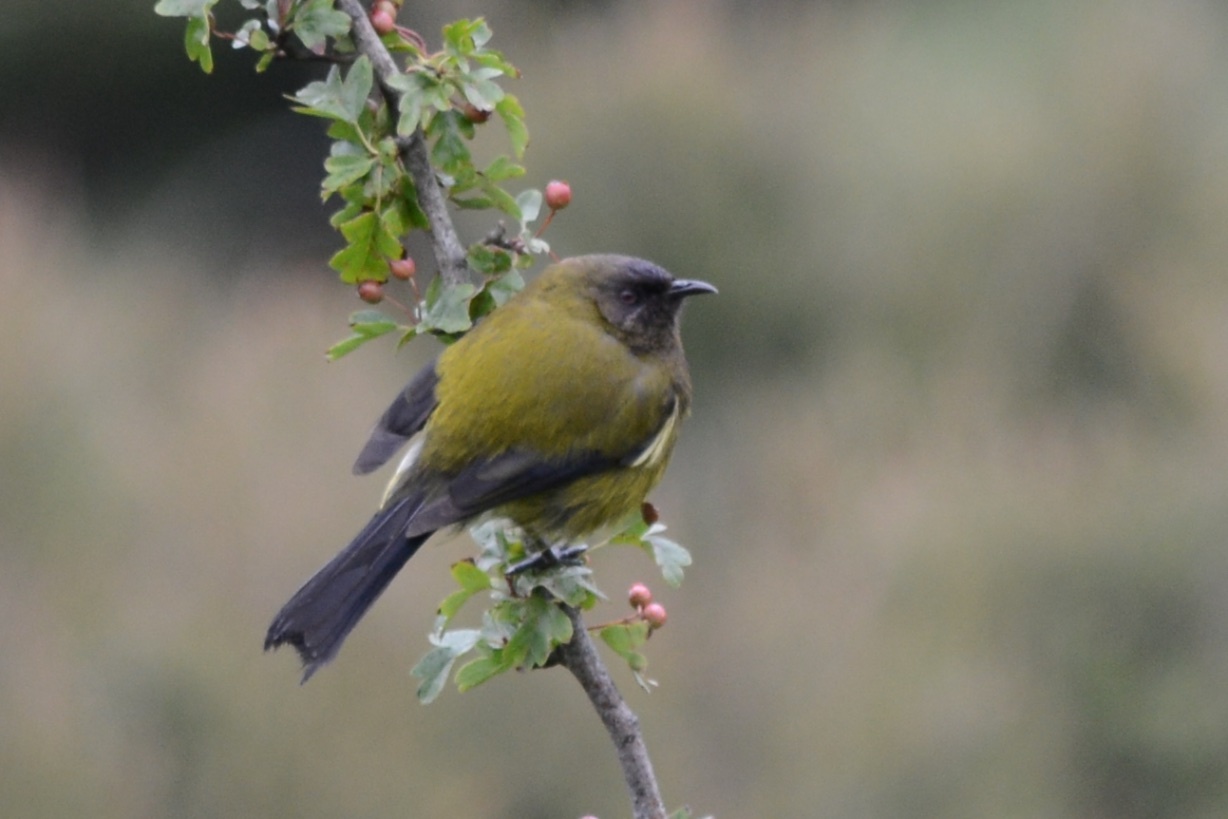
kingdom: Animalia
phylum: Chordata
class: Aves
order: Passeriformes
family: Meliphagidae
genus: Anthornis
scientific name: Anthornis melanura
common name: New zealand bellbird
